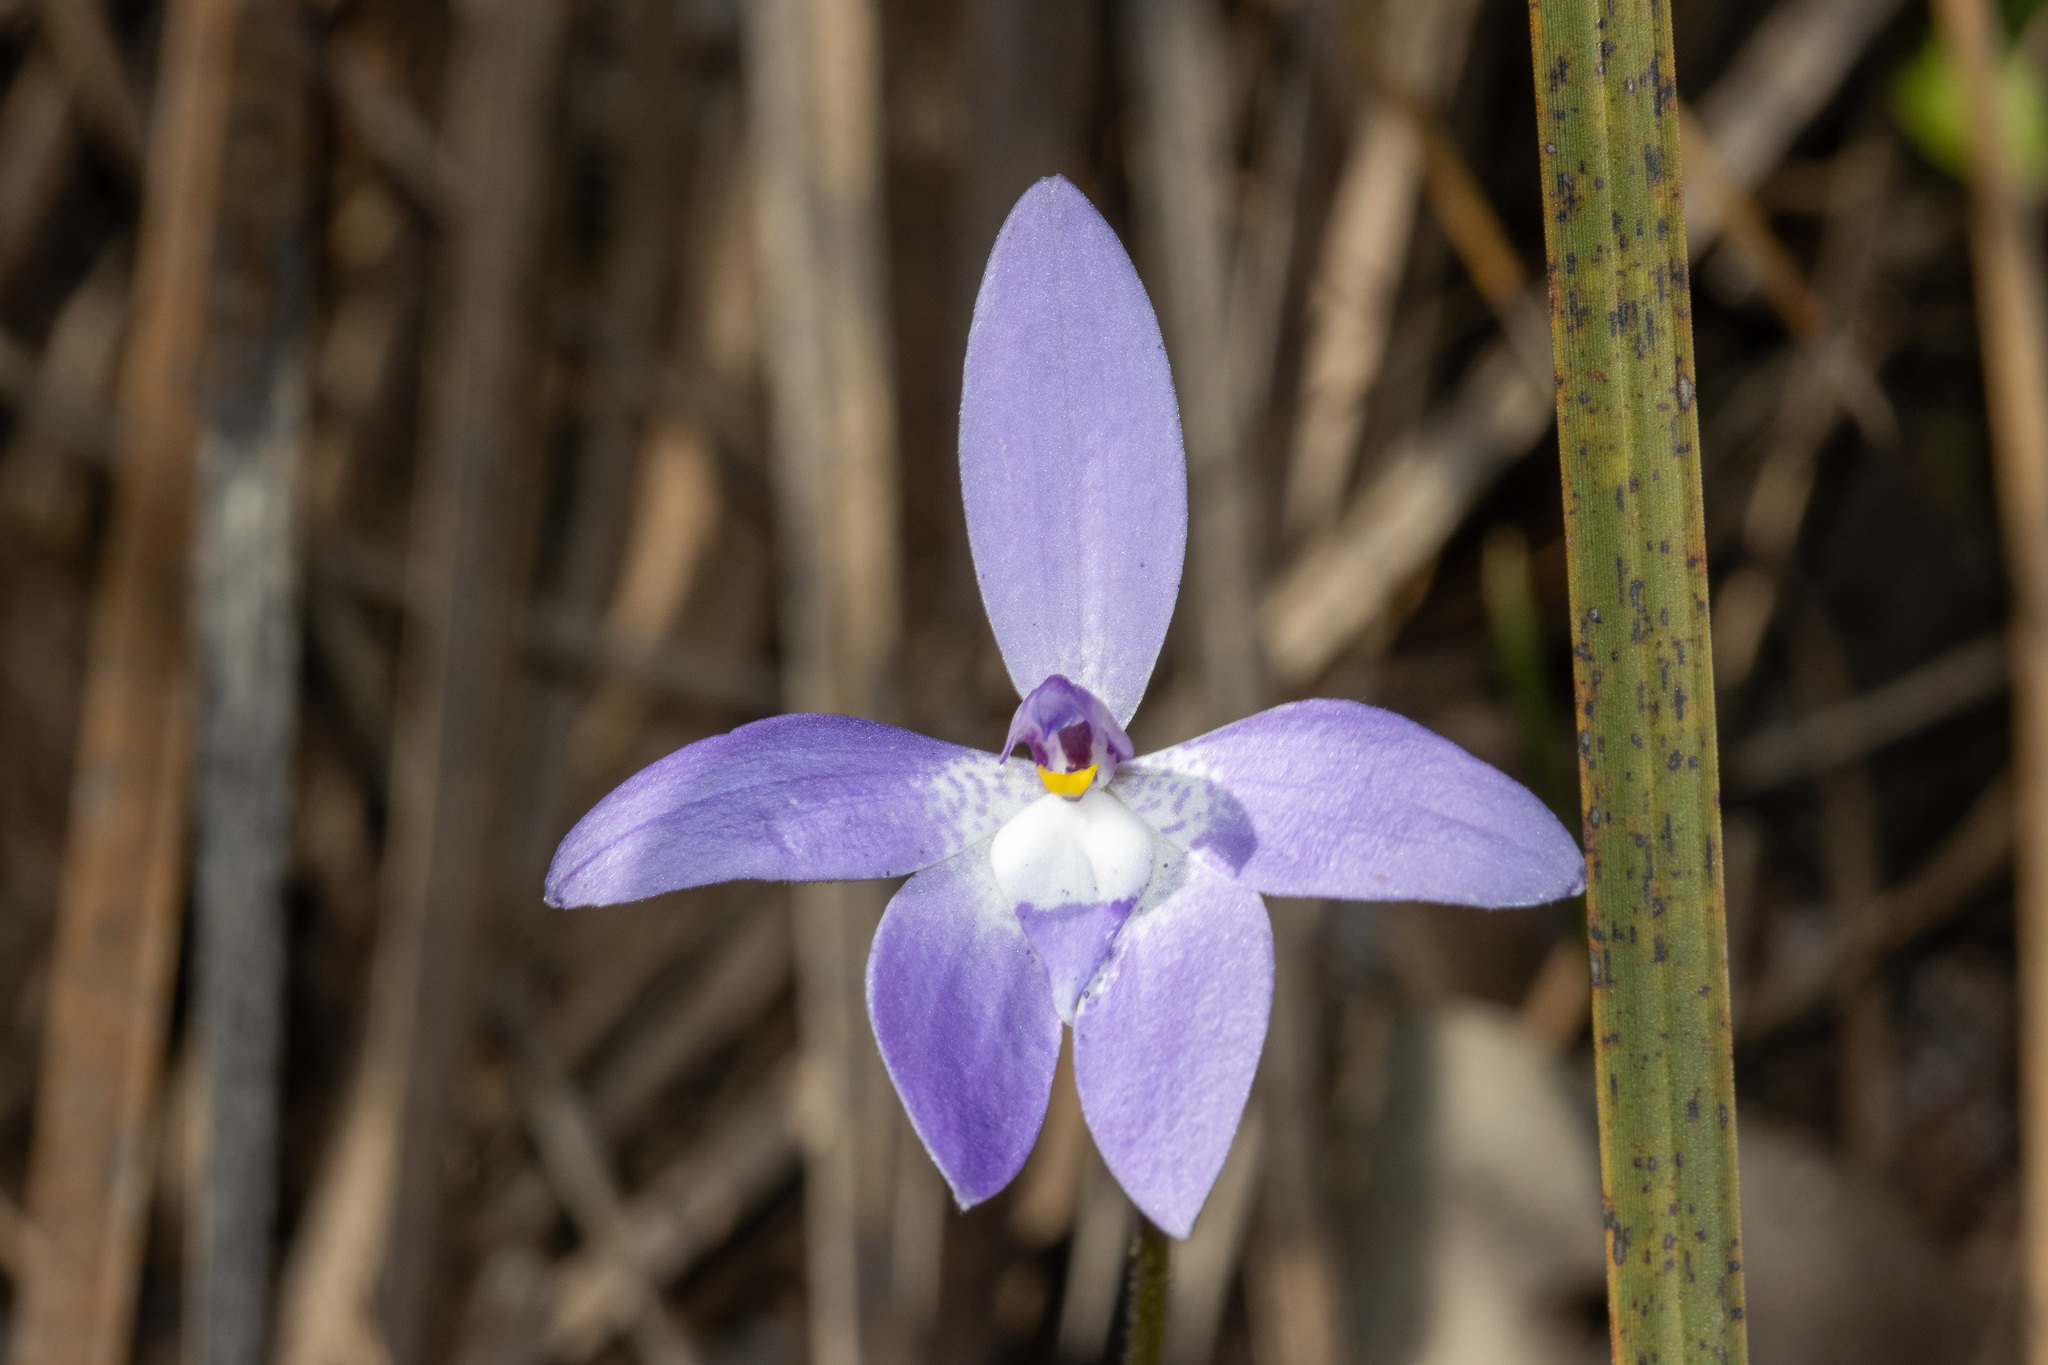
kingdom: Plantae
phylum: Tracheophyta
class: Liliopsida
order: Asparagales
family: Orchidaceae
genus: Caladenia
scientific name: Caladenia major
